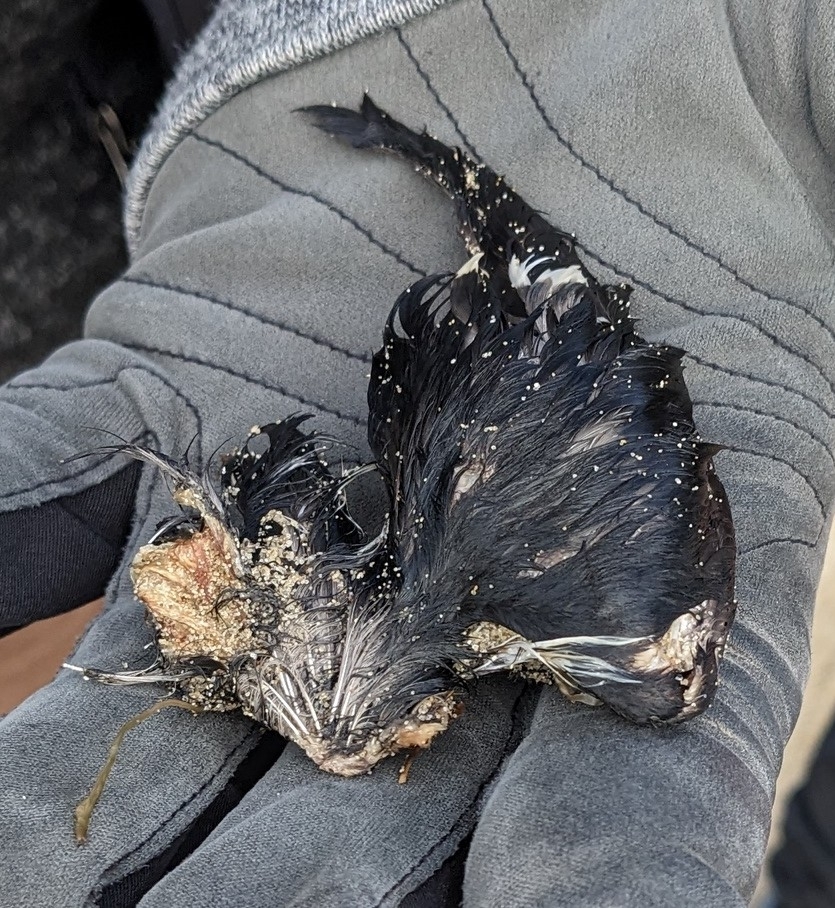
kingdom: Animalia
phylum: Chordata
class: Aves
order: Charadriiformes
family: Alcidae
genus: Alle
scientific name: Alle alle
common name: Little auk
